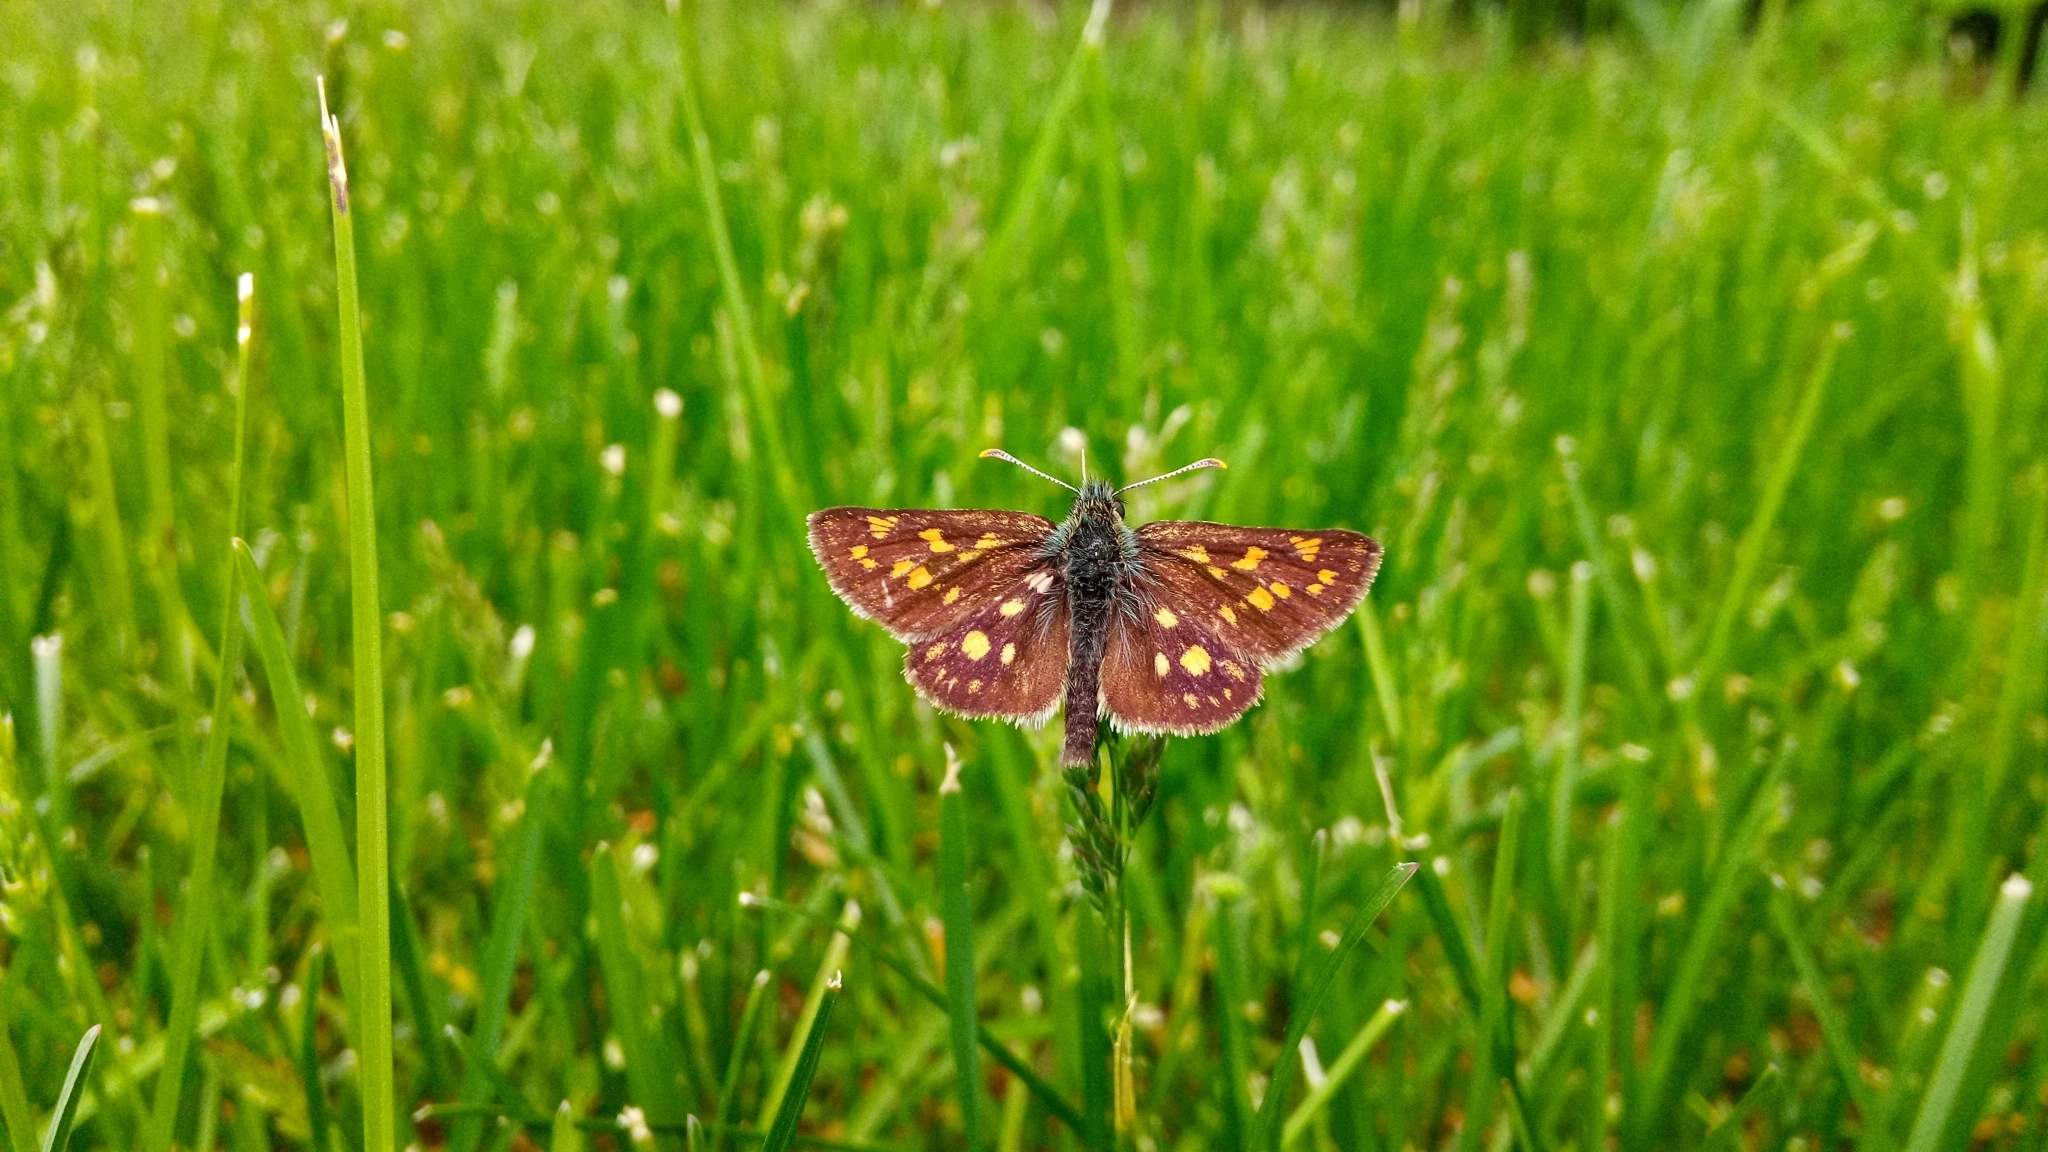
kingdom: Animalia
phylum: Arthropoda
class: Insecta
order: Lepidoptera
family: Hesperiidae
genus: Carterocephalus
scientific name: Carterocephalus palaemon
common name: Chequered skipper
